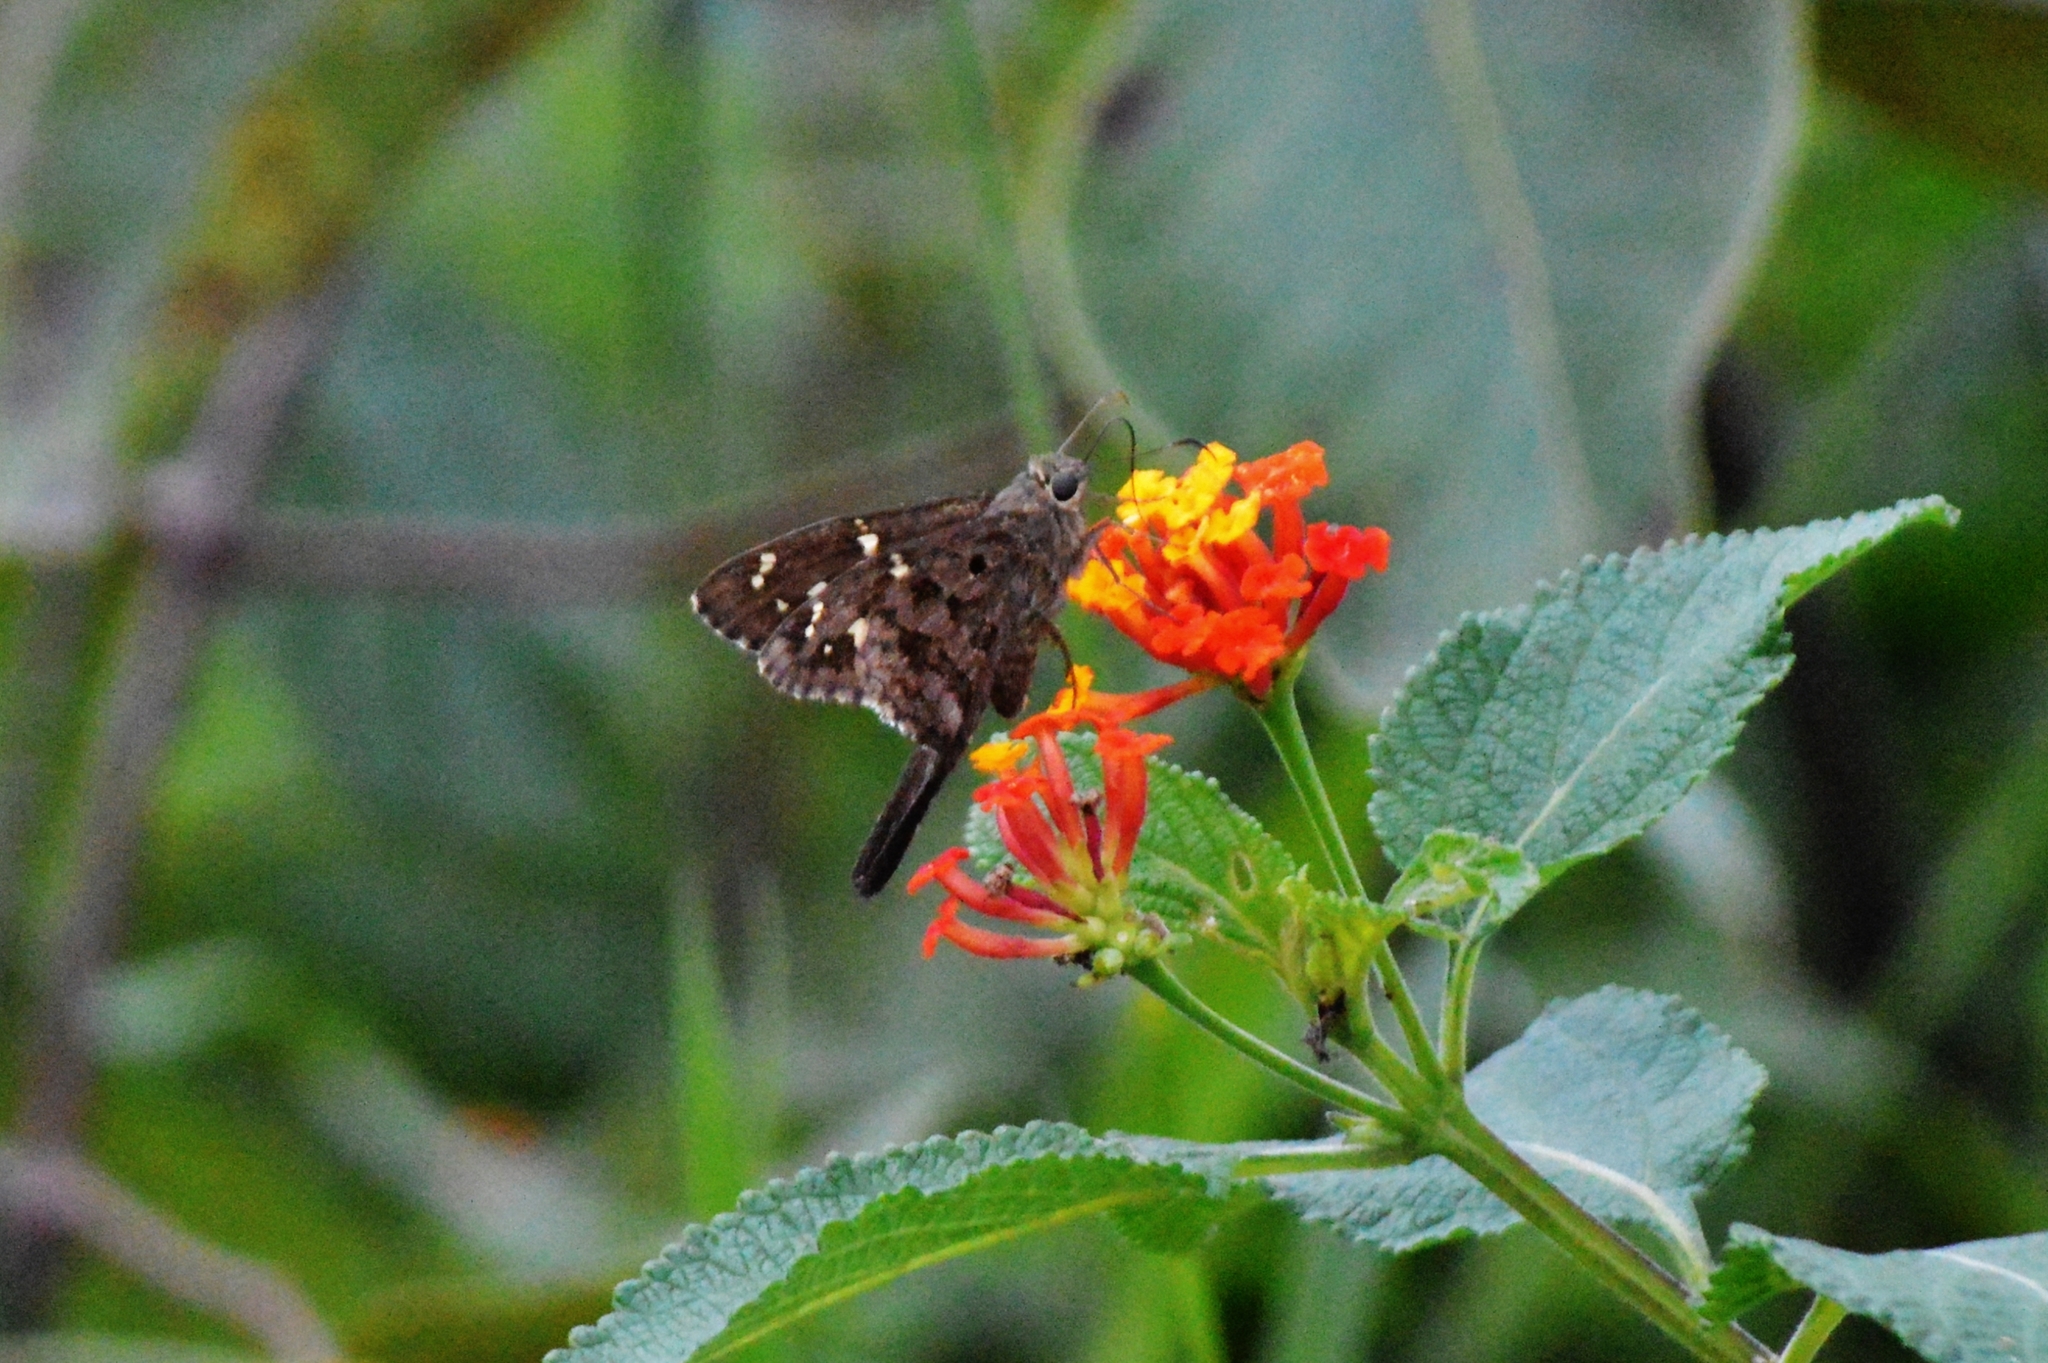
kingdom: Animalia
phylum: Arthropoda
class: Insecta
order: Lepidoptera
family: Hesperiidae
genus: Thorybes
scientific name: Thorybes
